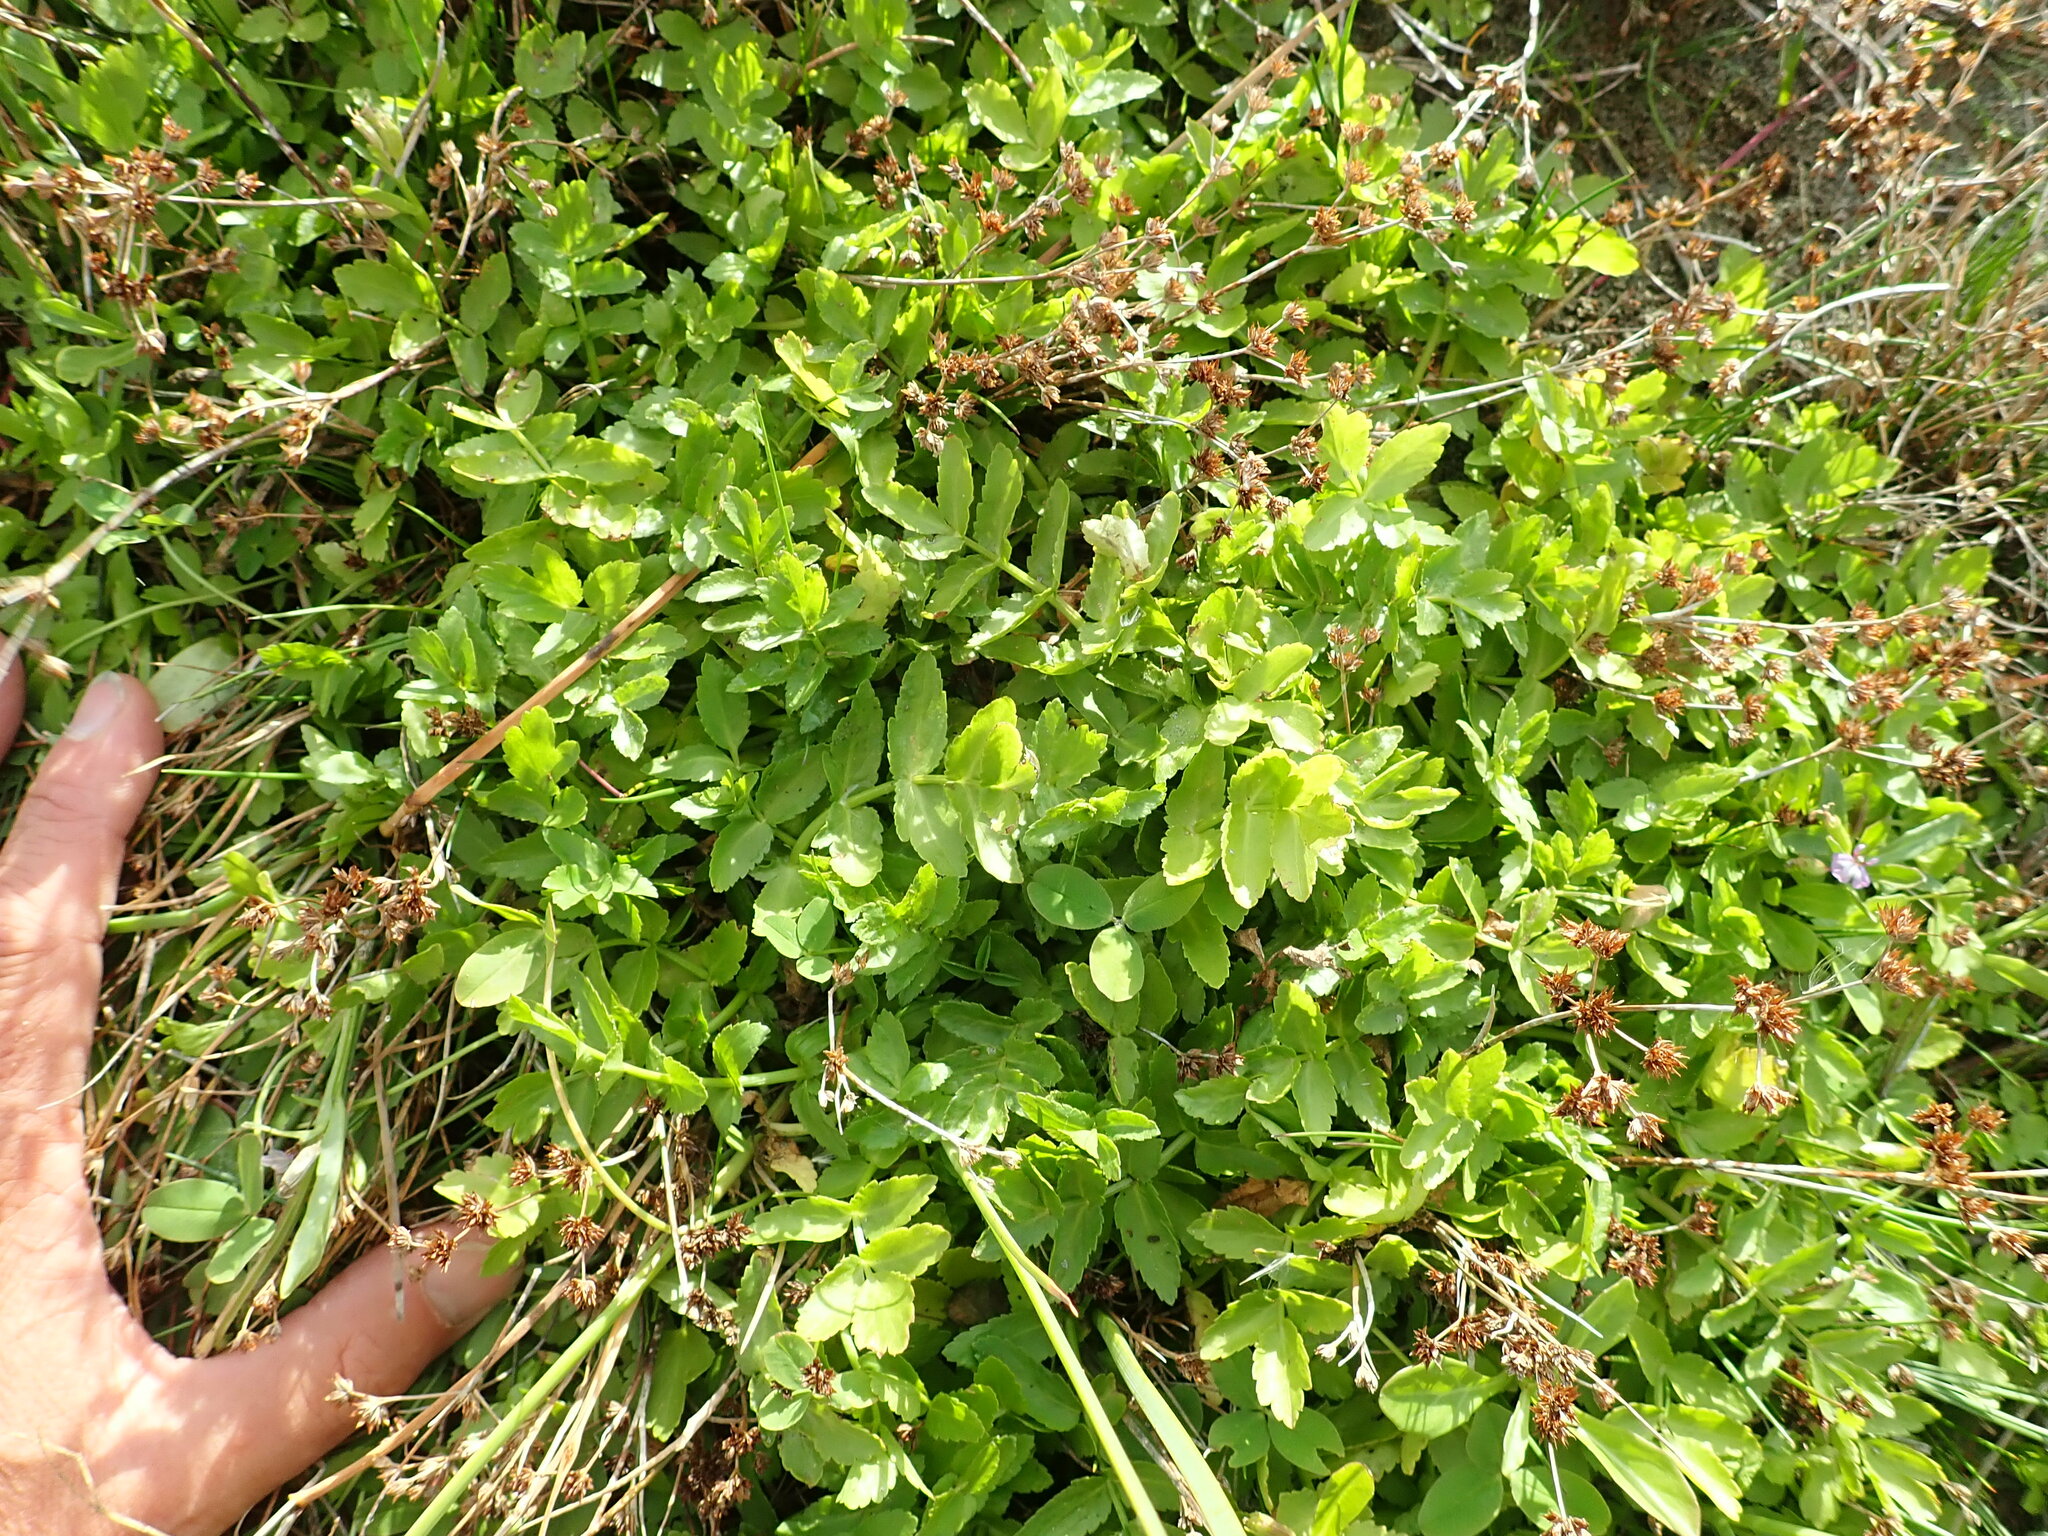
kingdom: Plantae
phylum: Tracheophyta
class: Magnoliopsida
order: Apiales
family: Apiaceae
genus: Helosciadium
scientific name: Helosciadium nodiflorum
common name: Fool's-watercress
